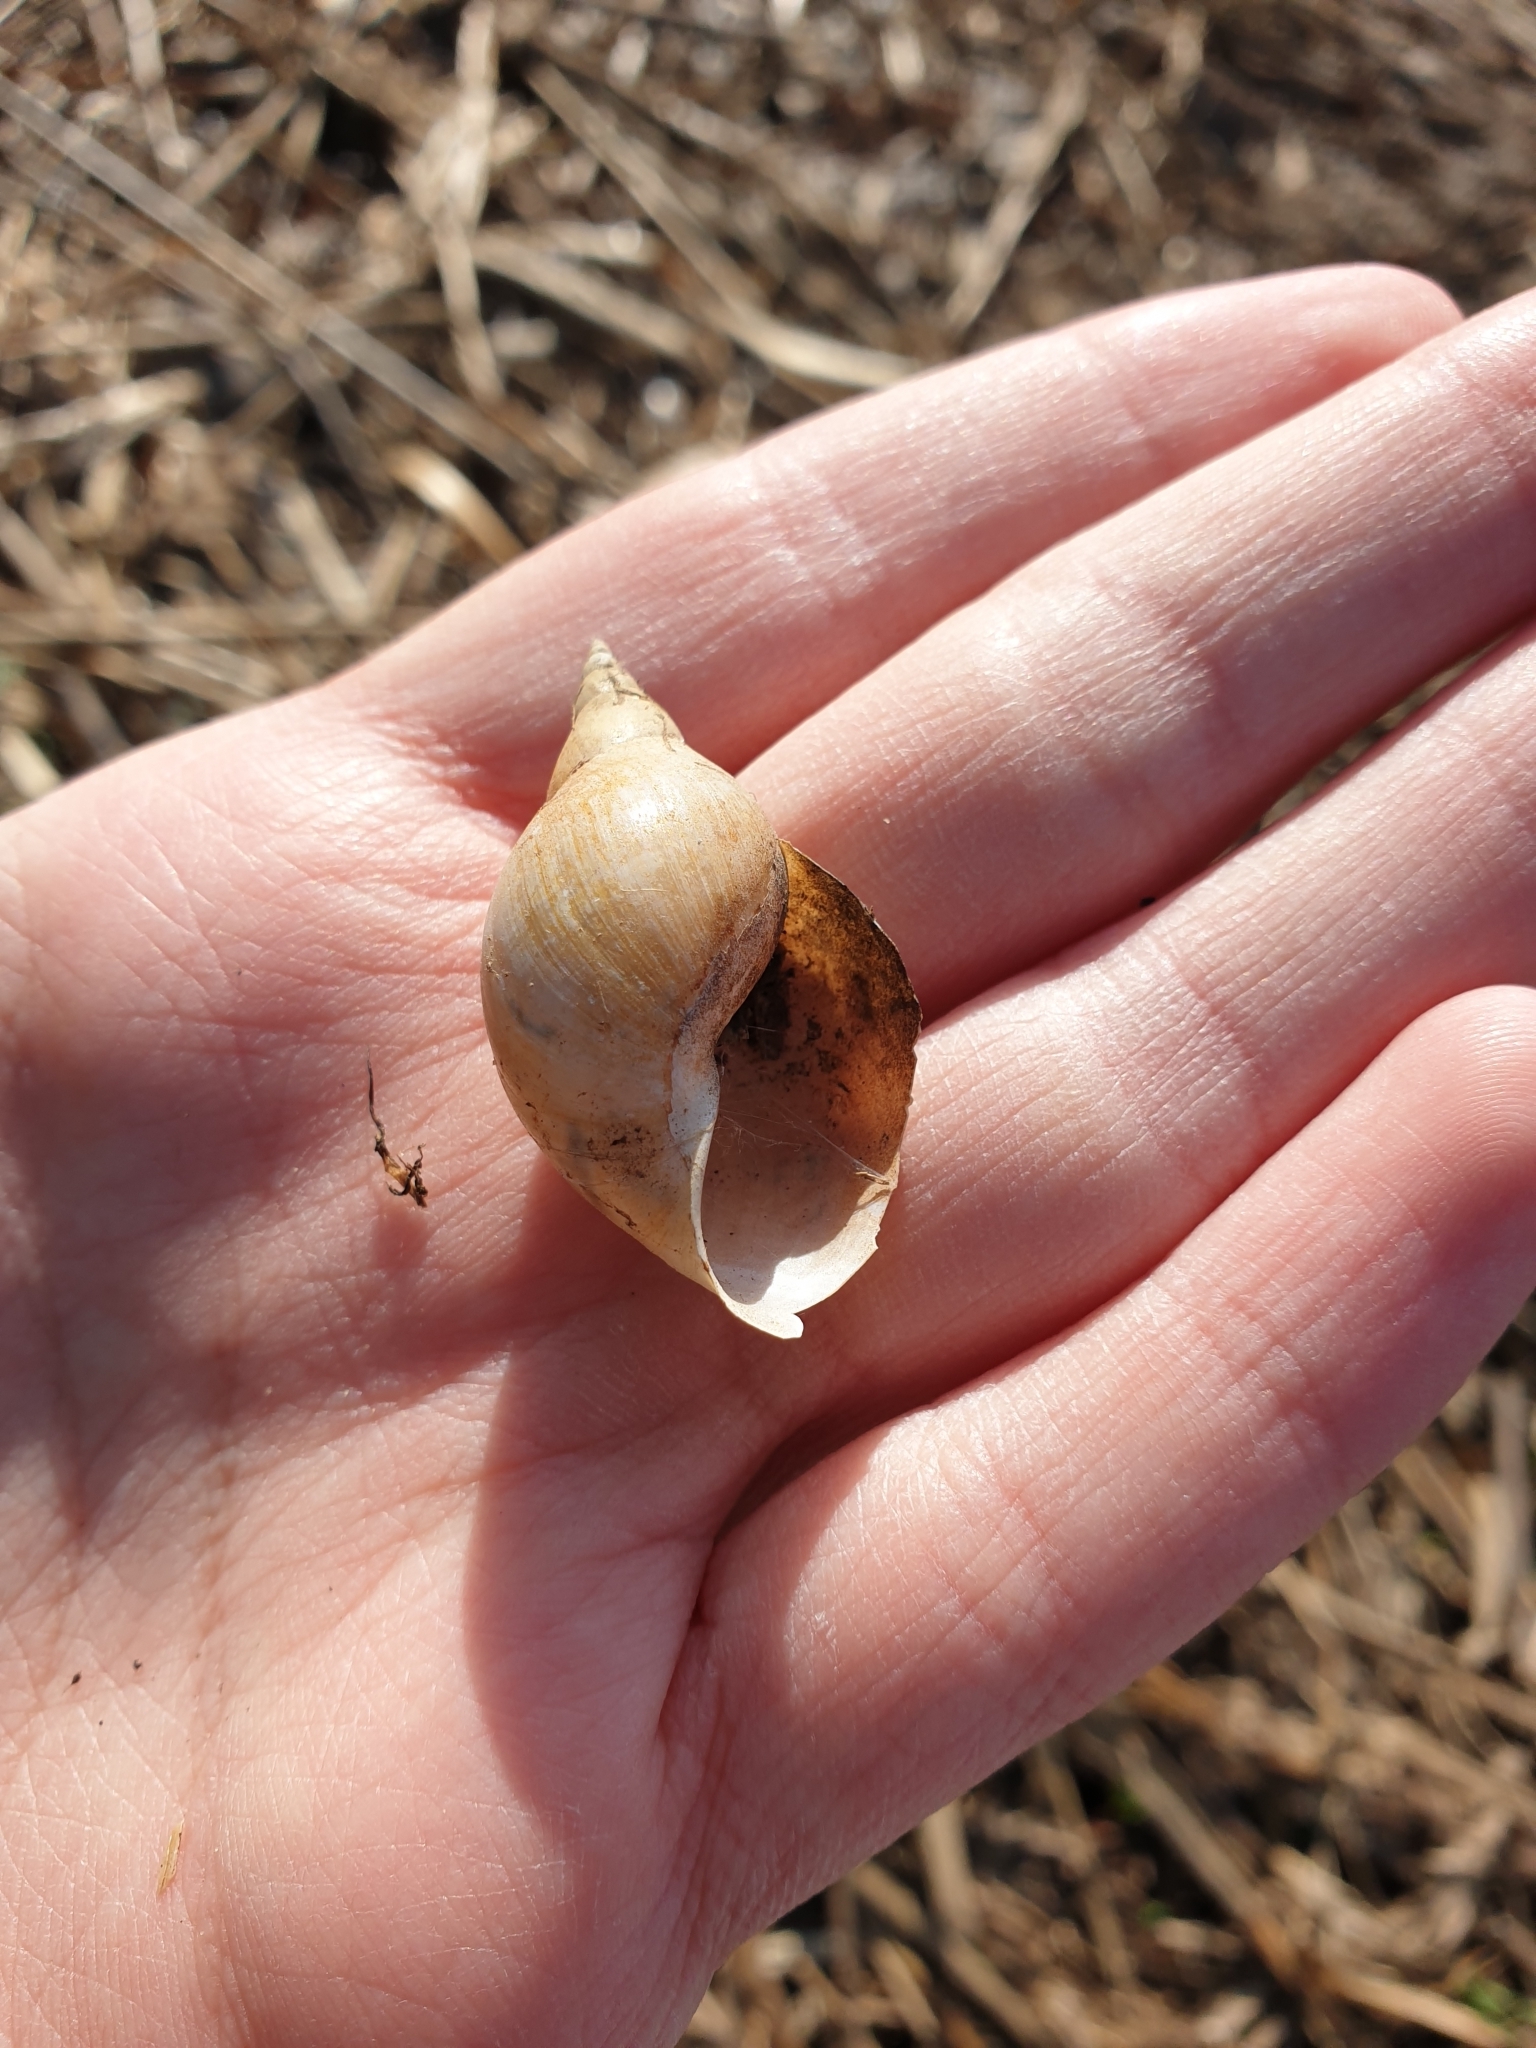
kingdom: Animalia
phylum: Mollusca
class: Gastropoda
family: Lymnaeidae
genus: Lymnaea
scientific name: Lymnaea stagnalis
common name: Great pond snail
